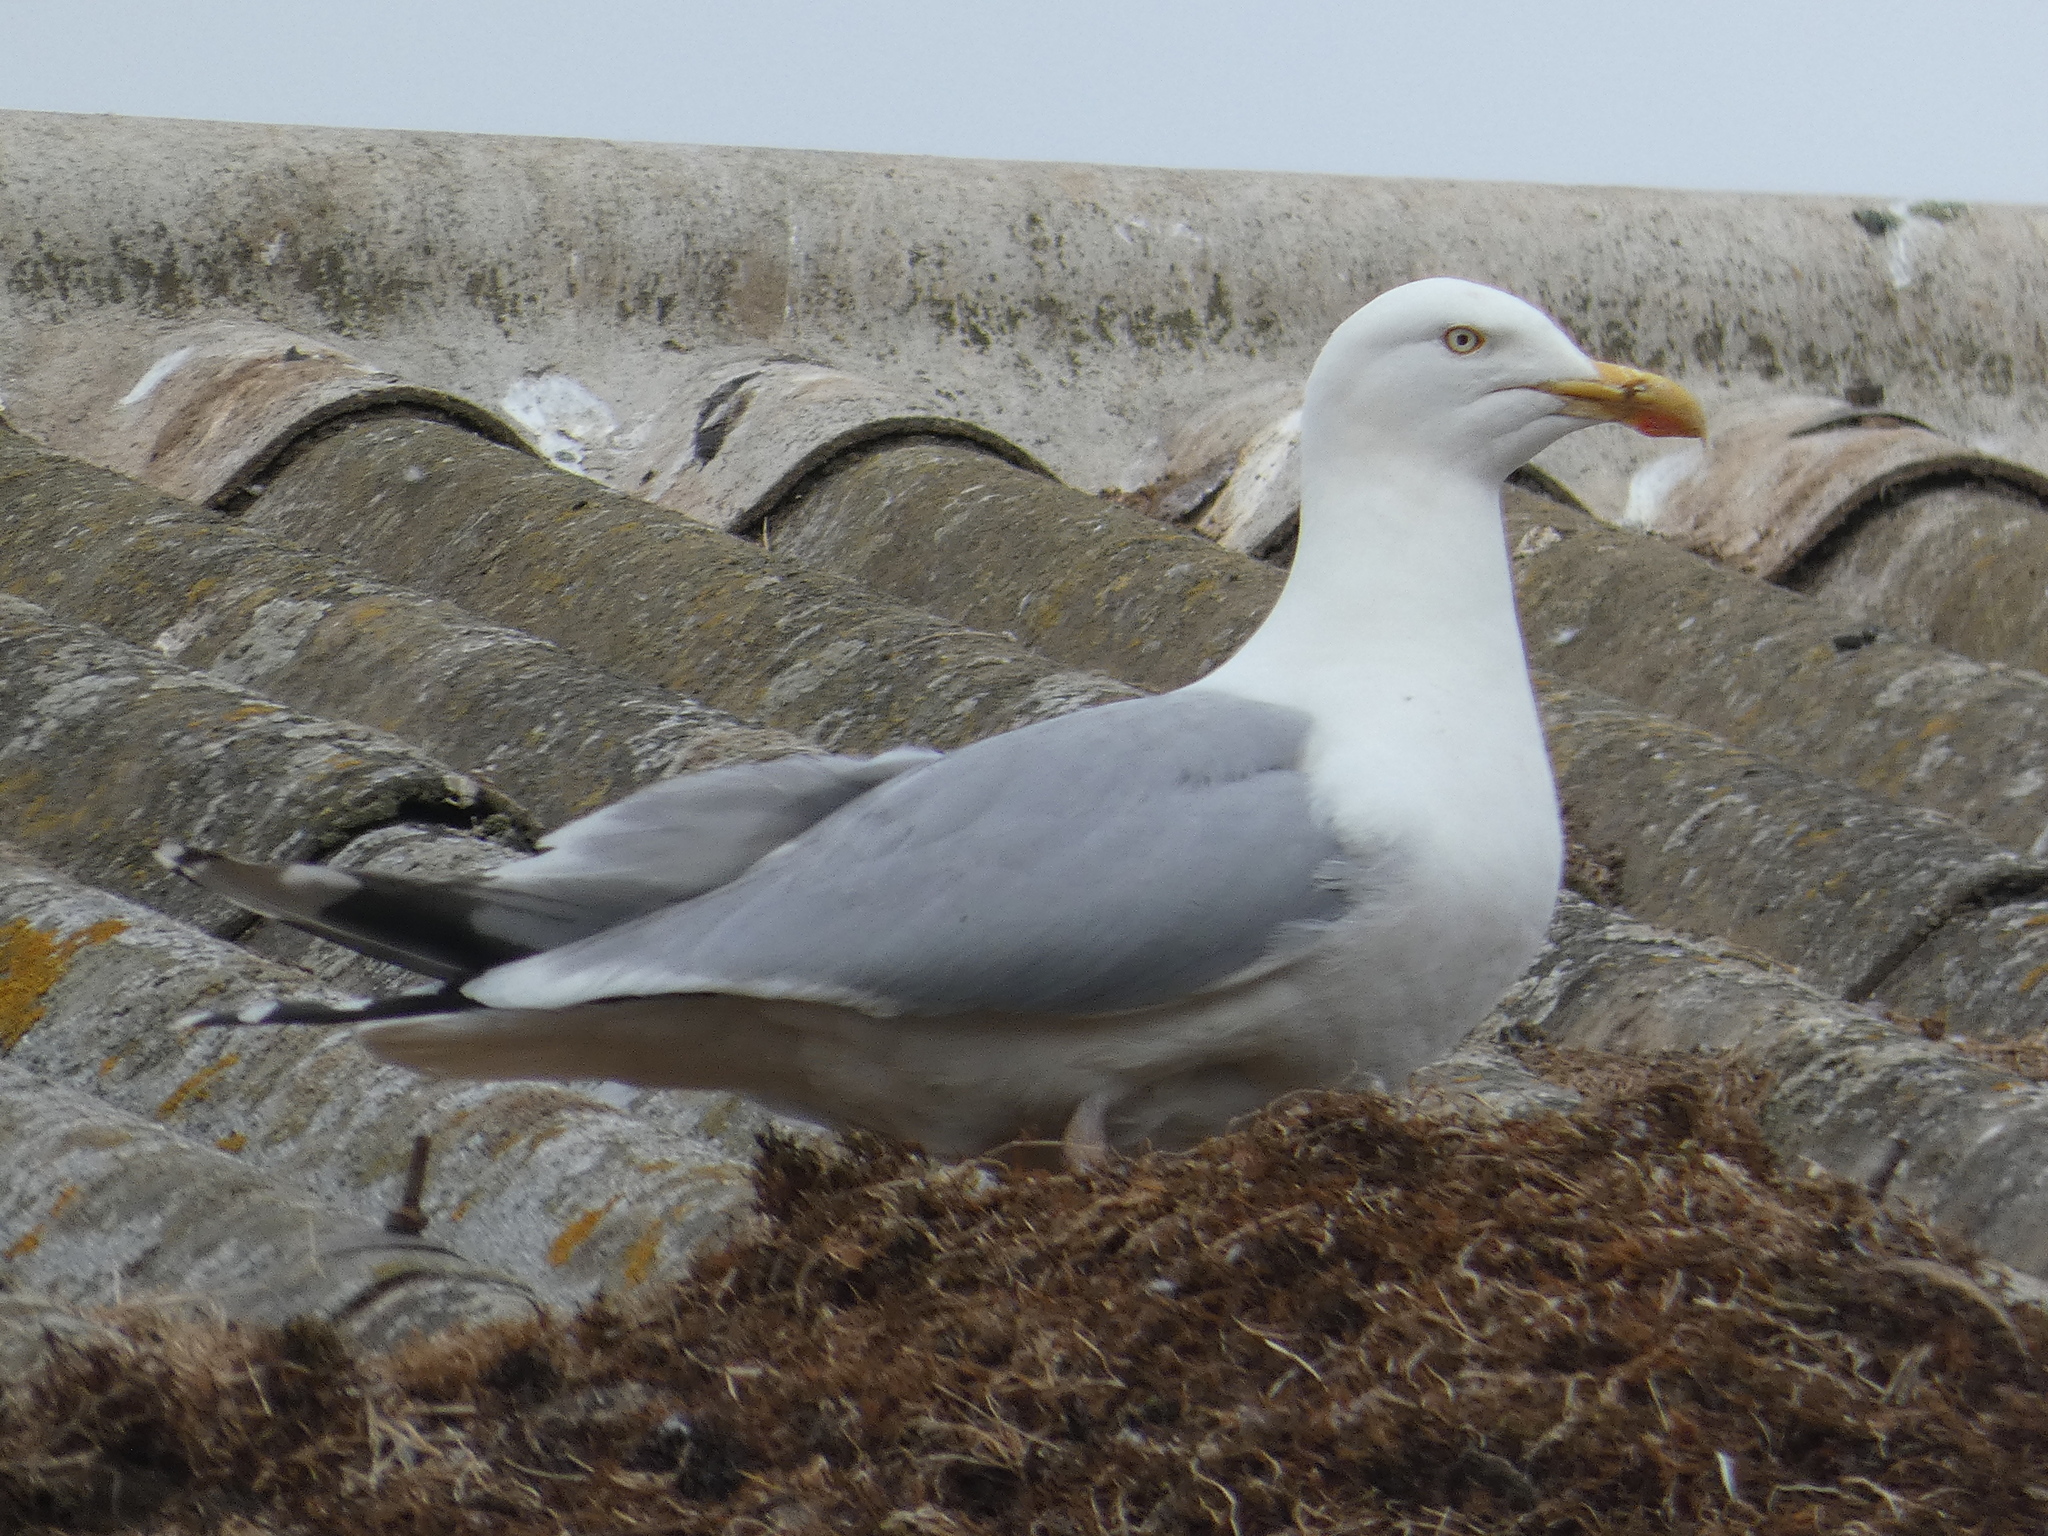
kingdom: Animalia
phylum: Chordata
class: Aves
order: Charadriiformes
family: Laridae
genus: Larus
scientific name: Larus argentatus
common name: Herring gull
